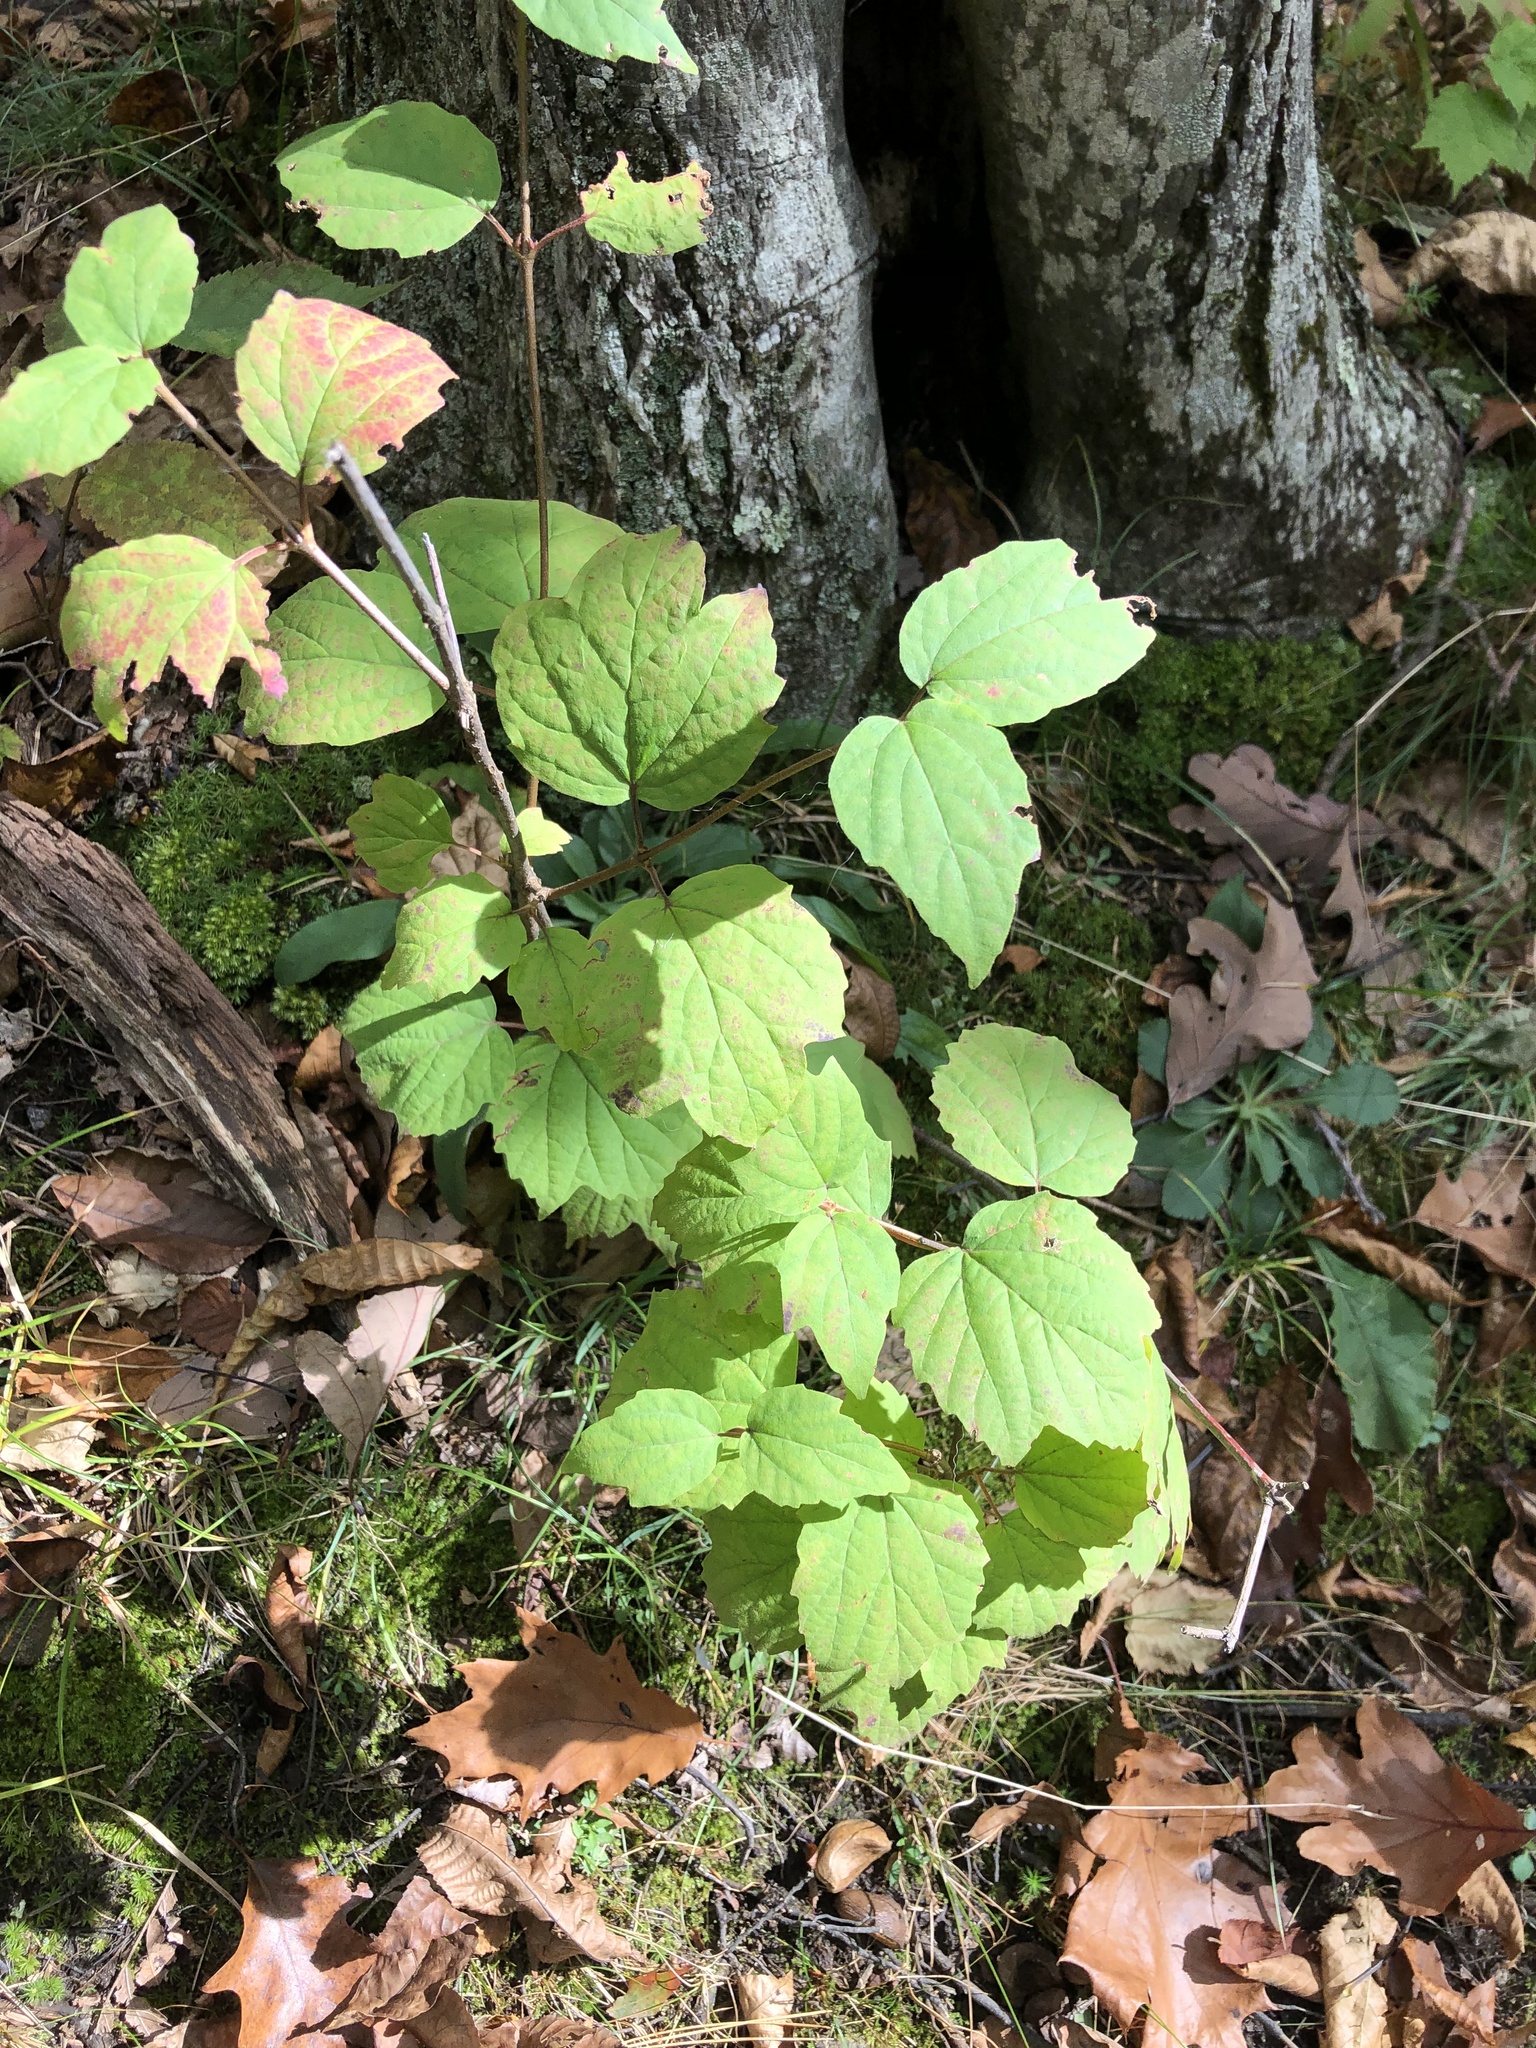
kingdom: Plantae
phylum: Tracheophyta
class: Magnoliopsida
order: Dipsacales
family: Viburnaceae
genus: Viburnum
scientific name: Viburnum acerifolium
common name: Dockmackie
